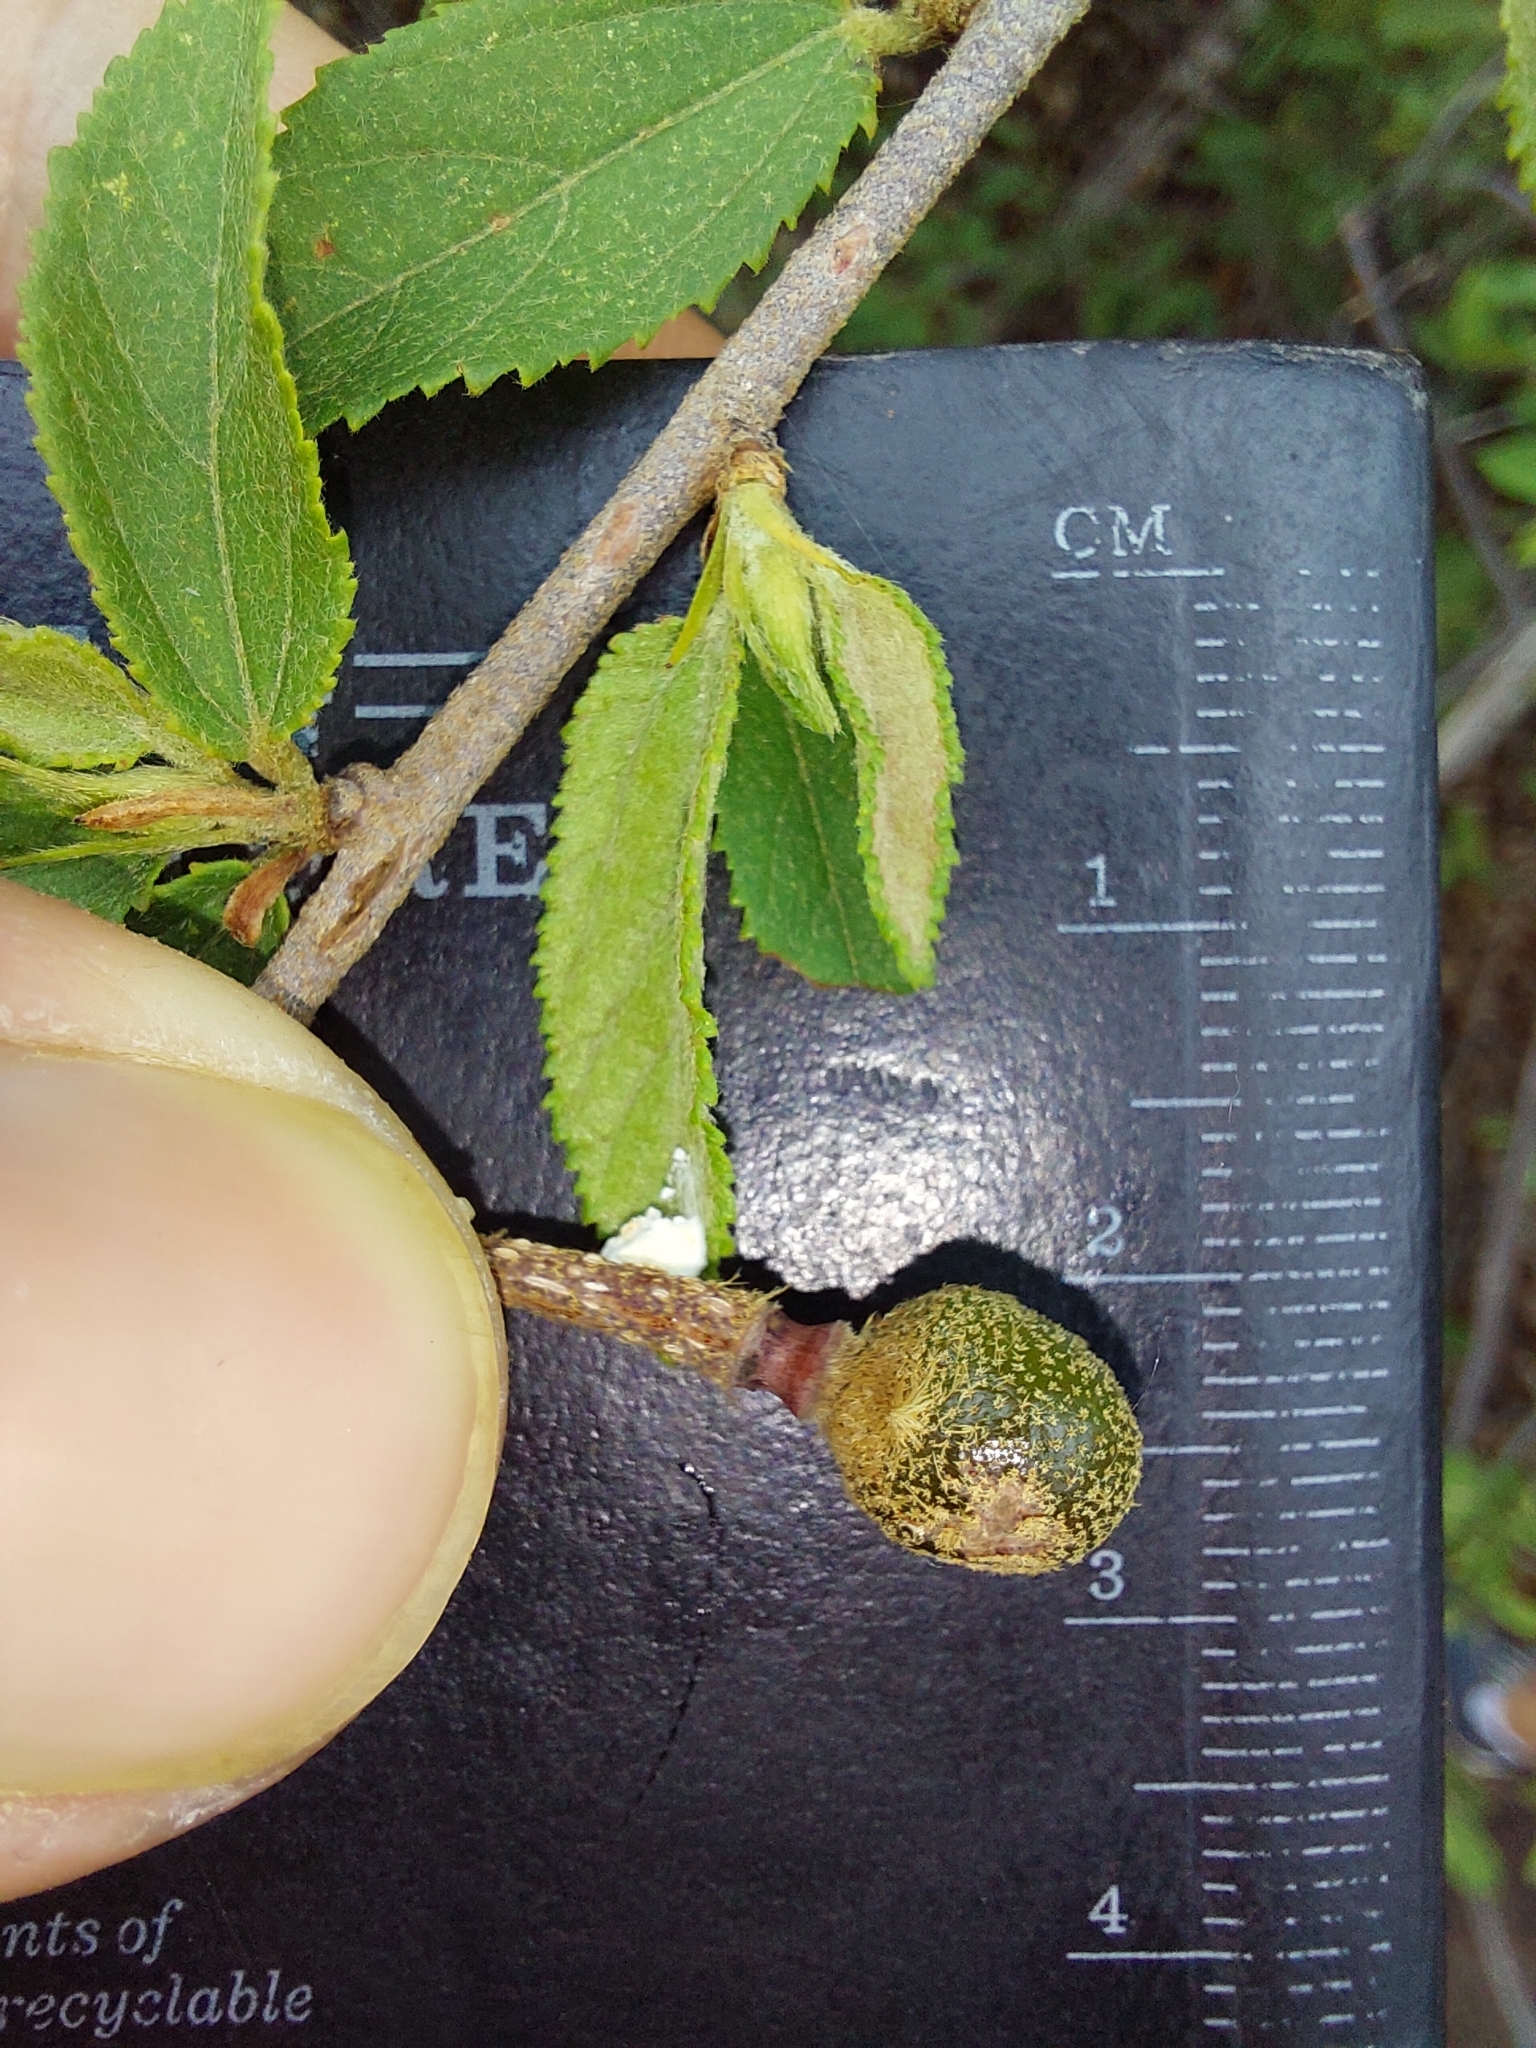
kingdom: Plantae
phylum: Tracheophyta
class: Magnoliopsida
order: Malvales
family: Malvaceae
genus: Grewia
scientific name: Grewia flavescens
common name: Sandpaper raisin
